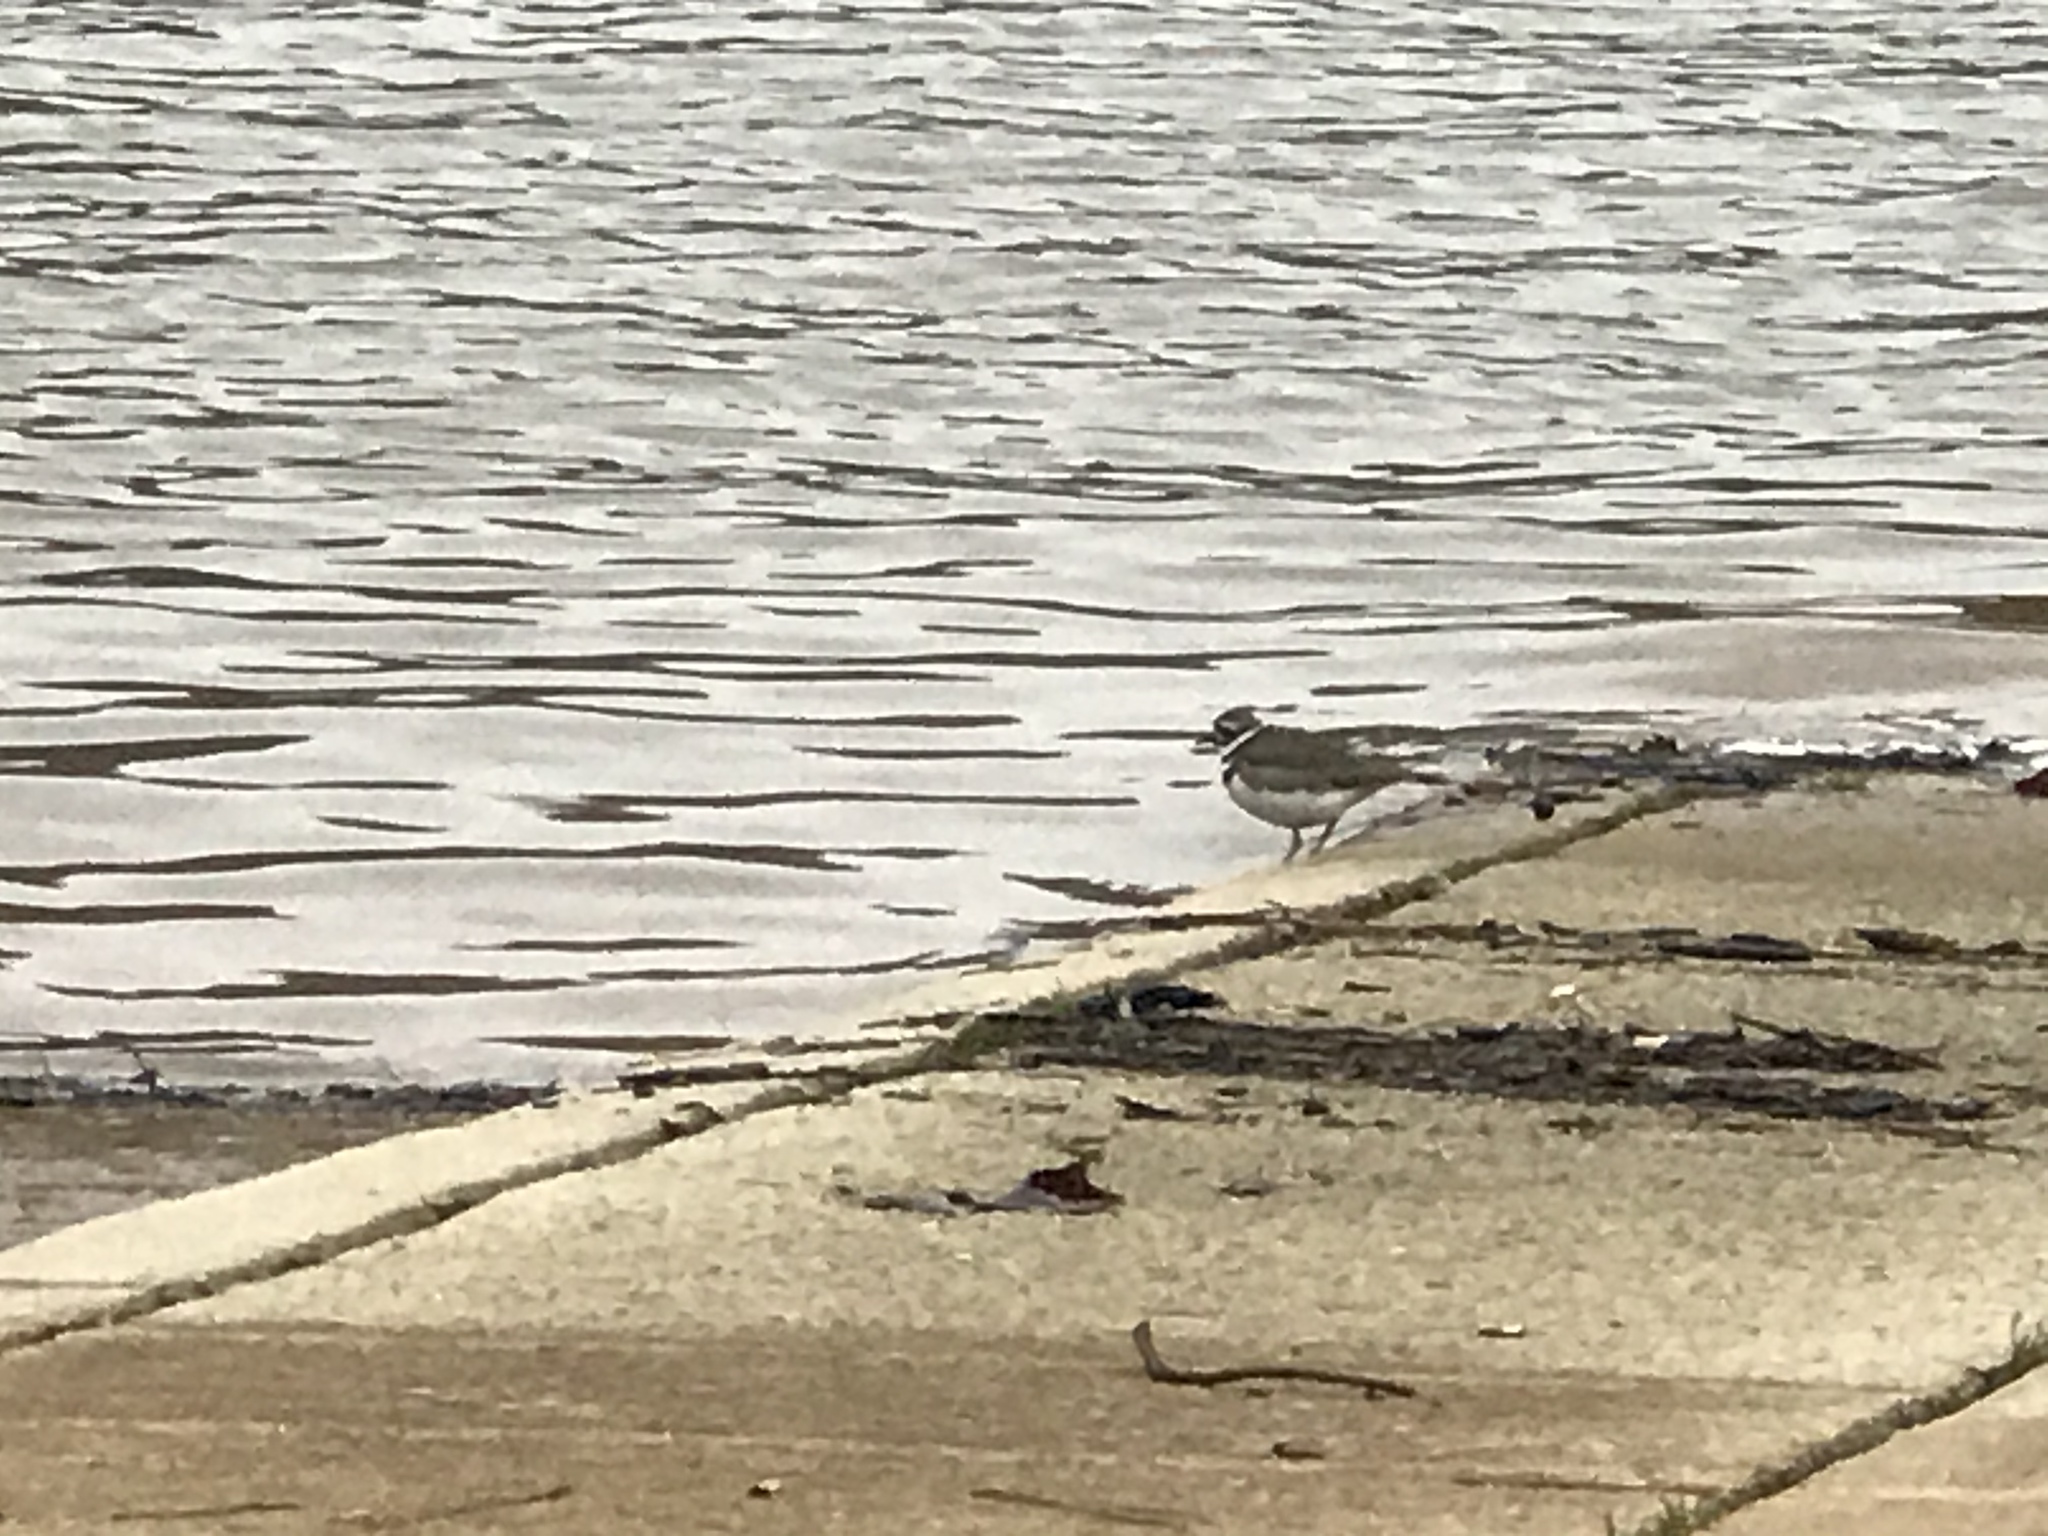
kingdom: Animalia
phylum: Chordata
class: Aves
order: Charadriiformes
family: Charadriidae
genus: Charadrius
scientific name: Charadrius vociferus
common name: Killdeer
